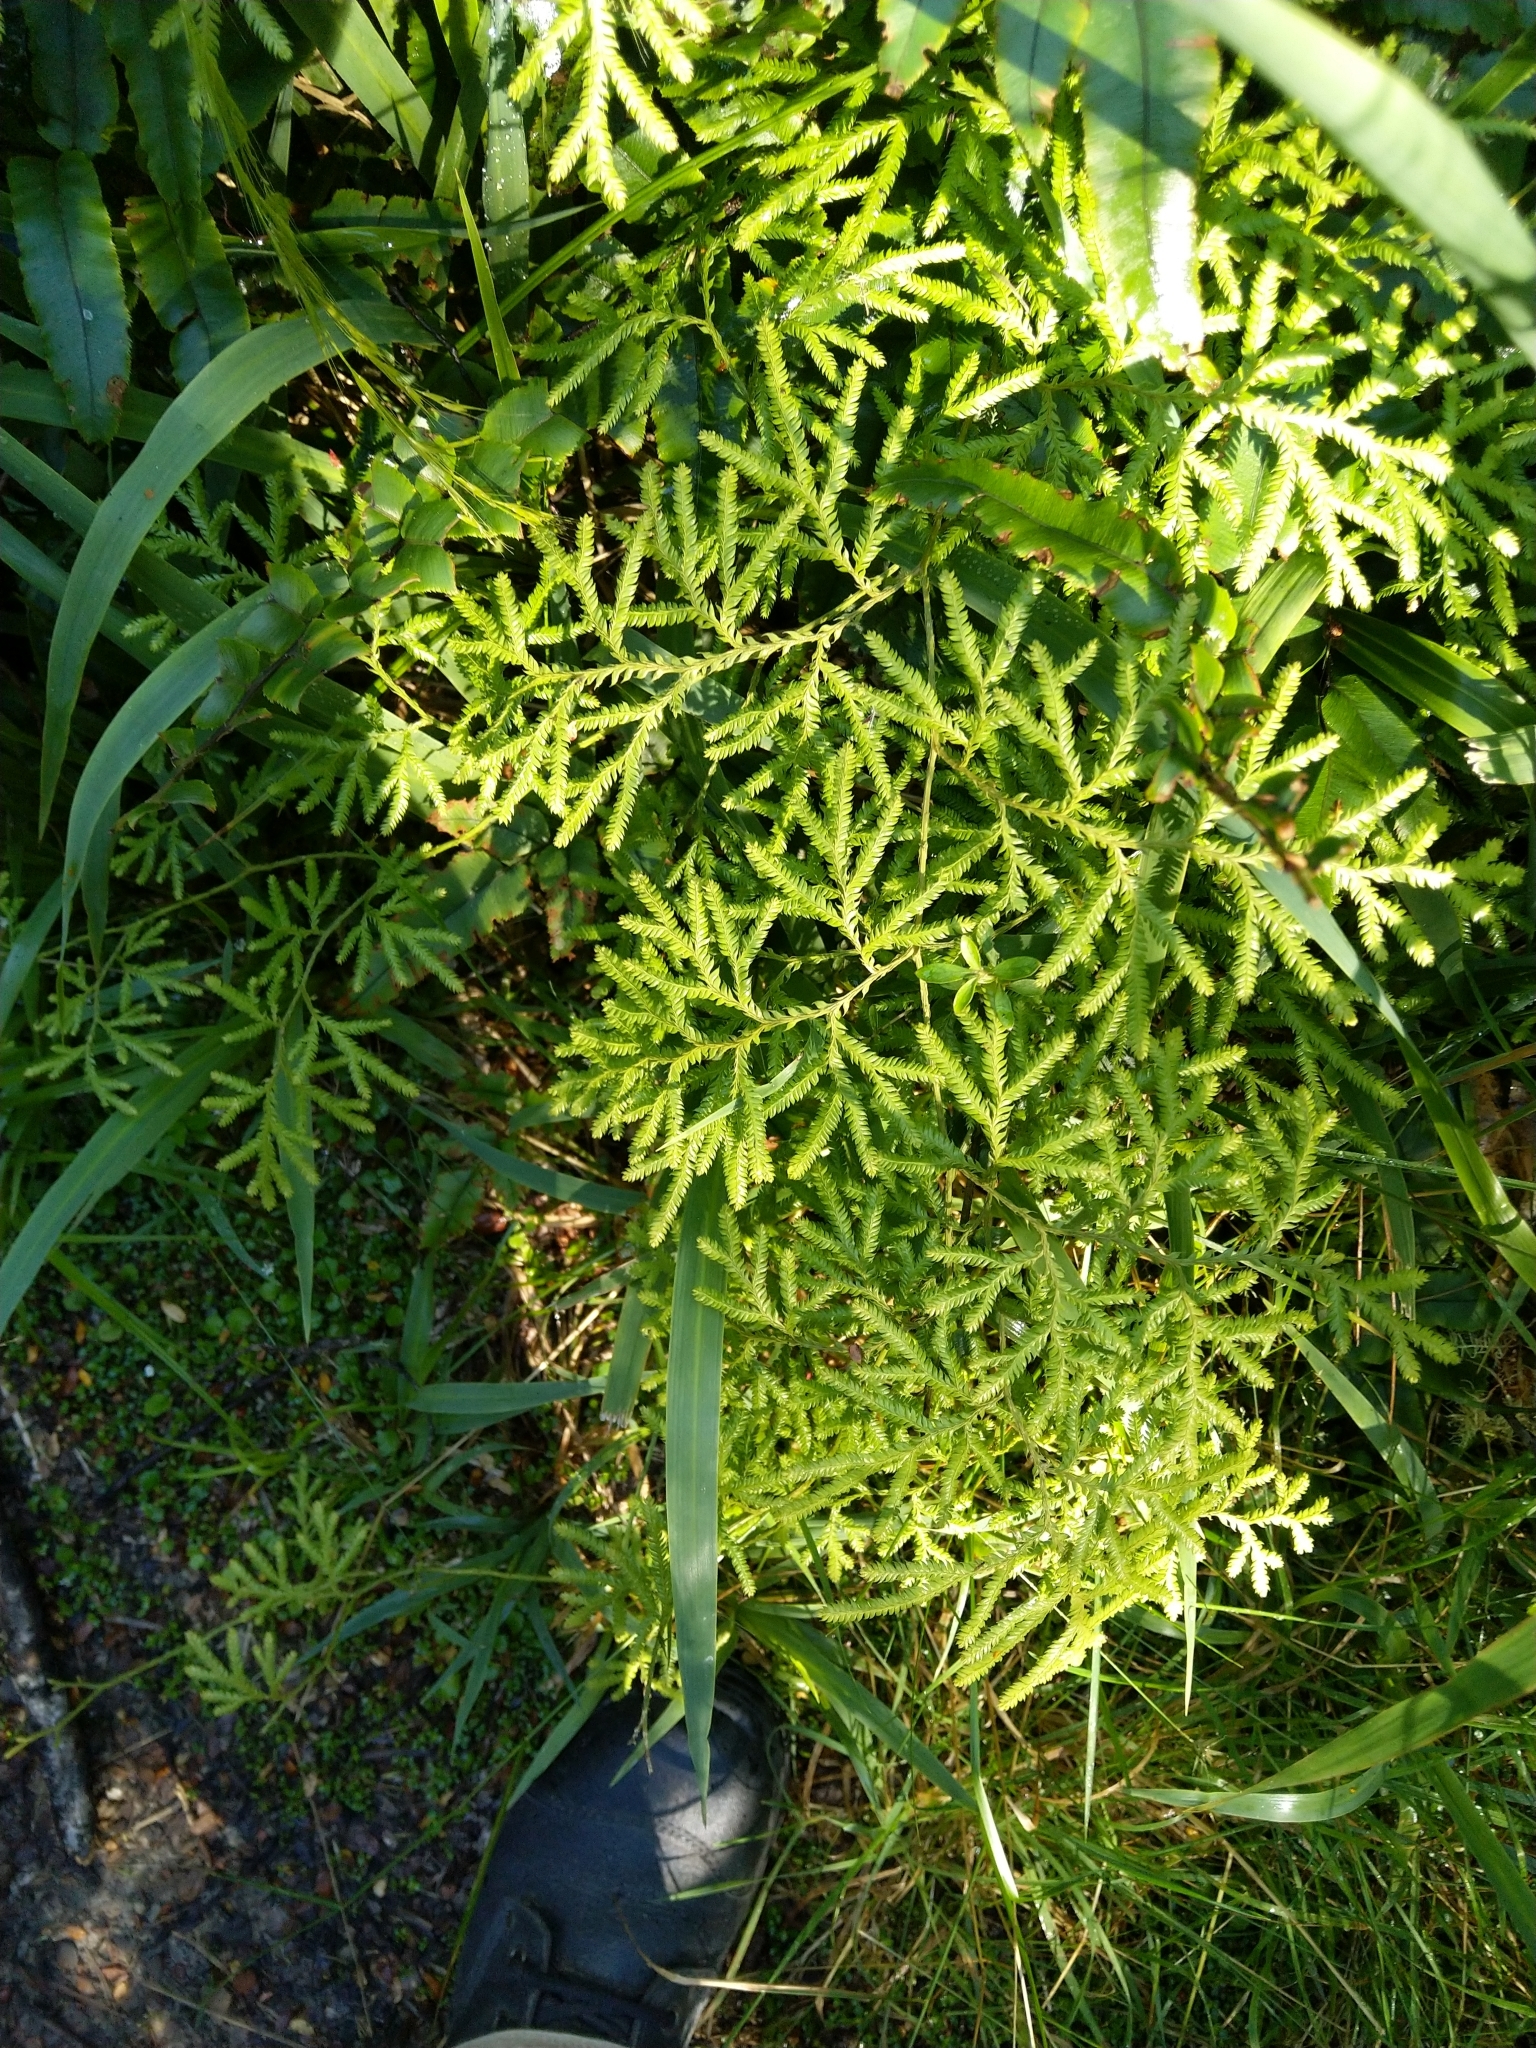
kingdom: Plantae
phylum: Tracheophyta
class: Lycopodiopsida
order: Lycopodiales
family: Lycopodiaceae
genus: Lycopodium
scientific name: Lycopodium volubile
